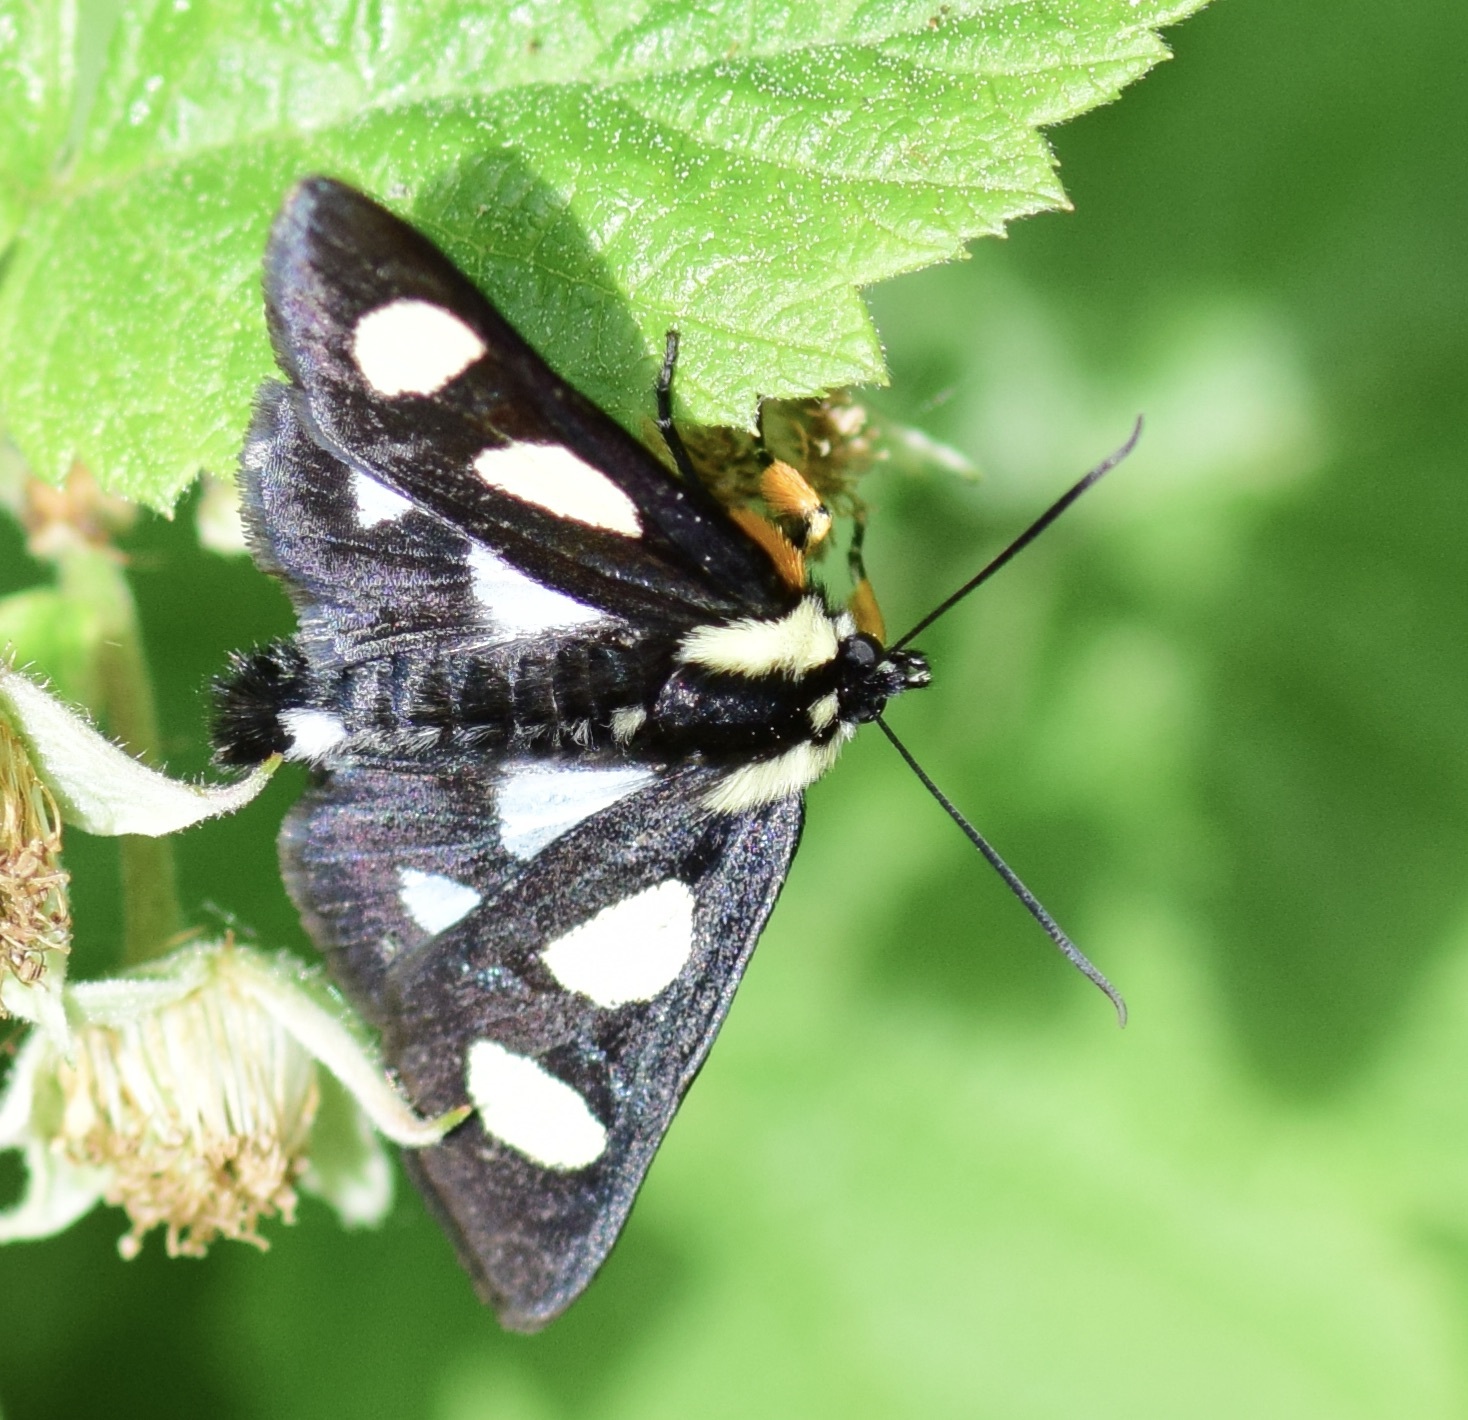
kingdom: Animalia
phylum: Arthropoda
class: Insecta
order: Lepidoptera
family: Noctuidae
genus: Alypia
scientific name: Alypia octomaculata
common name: Eight-spotted forester
